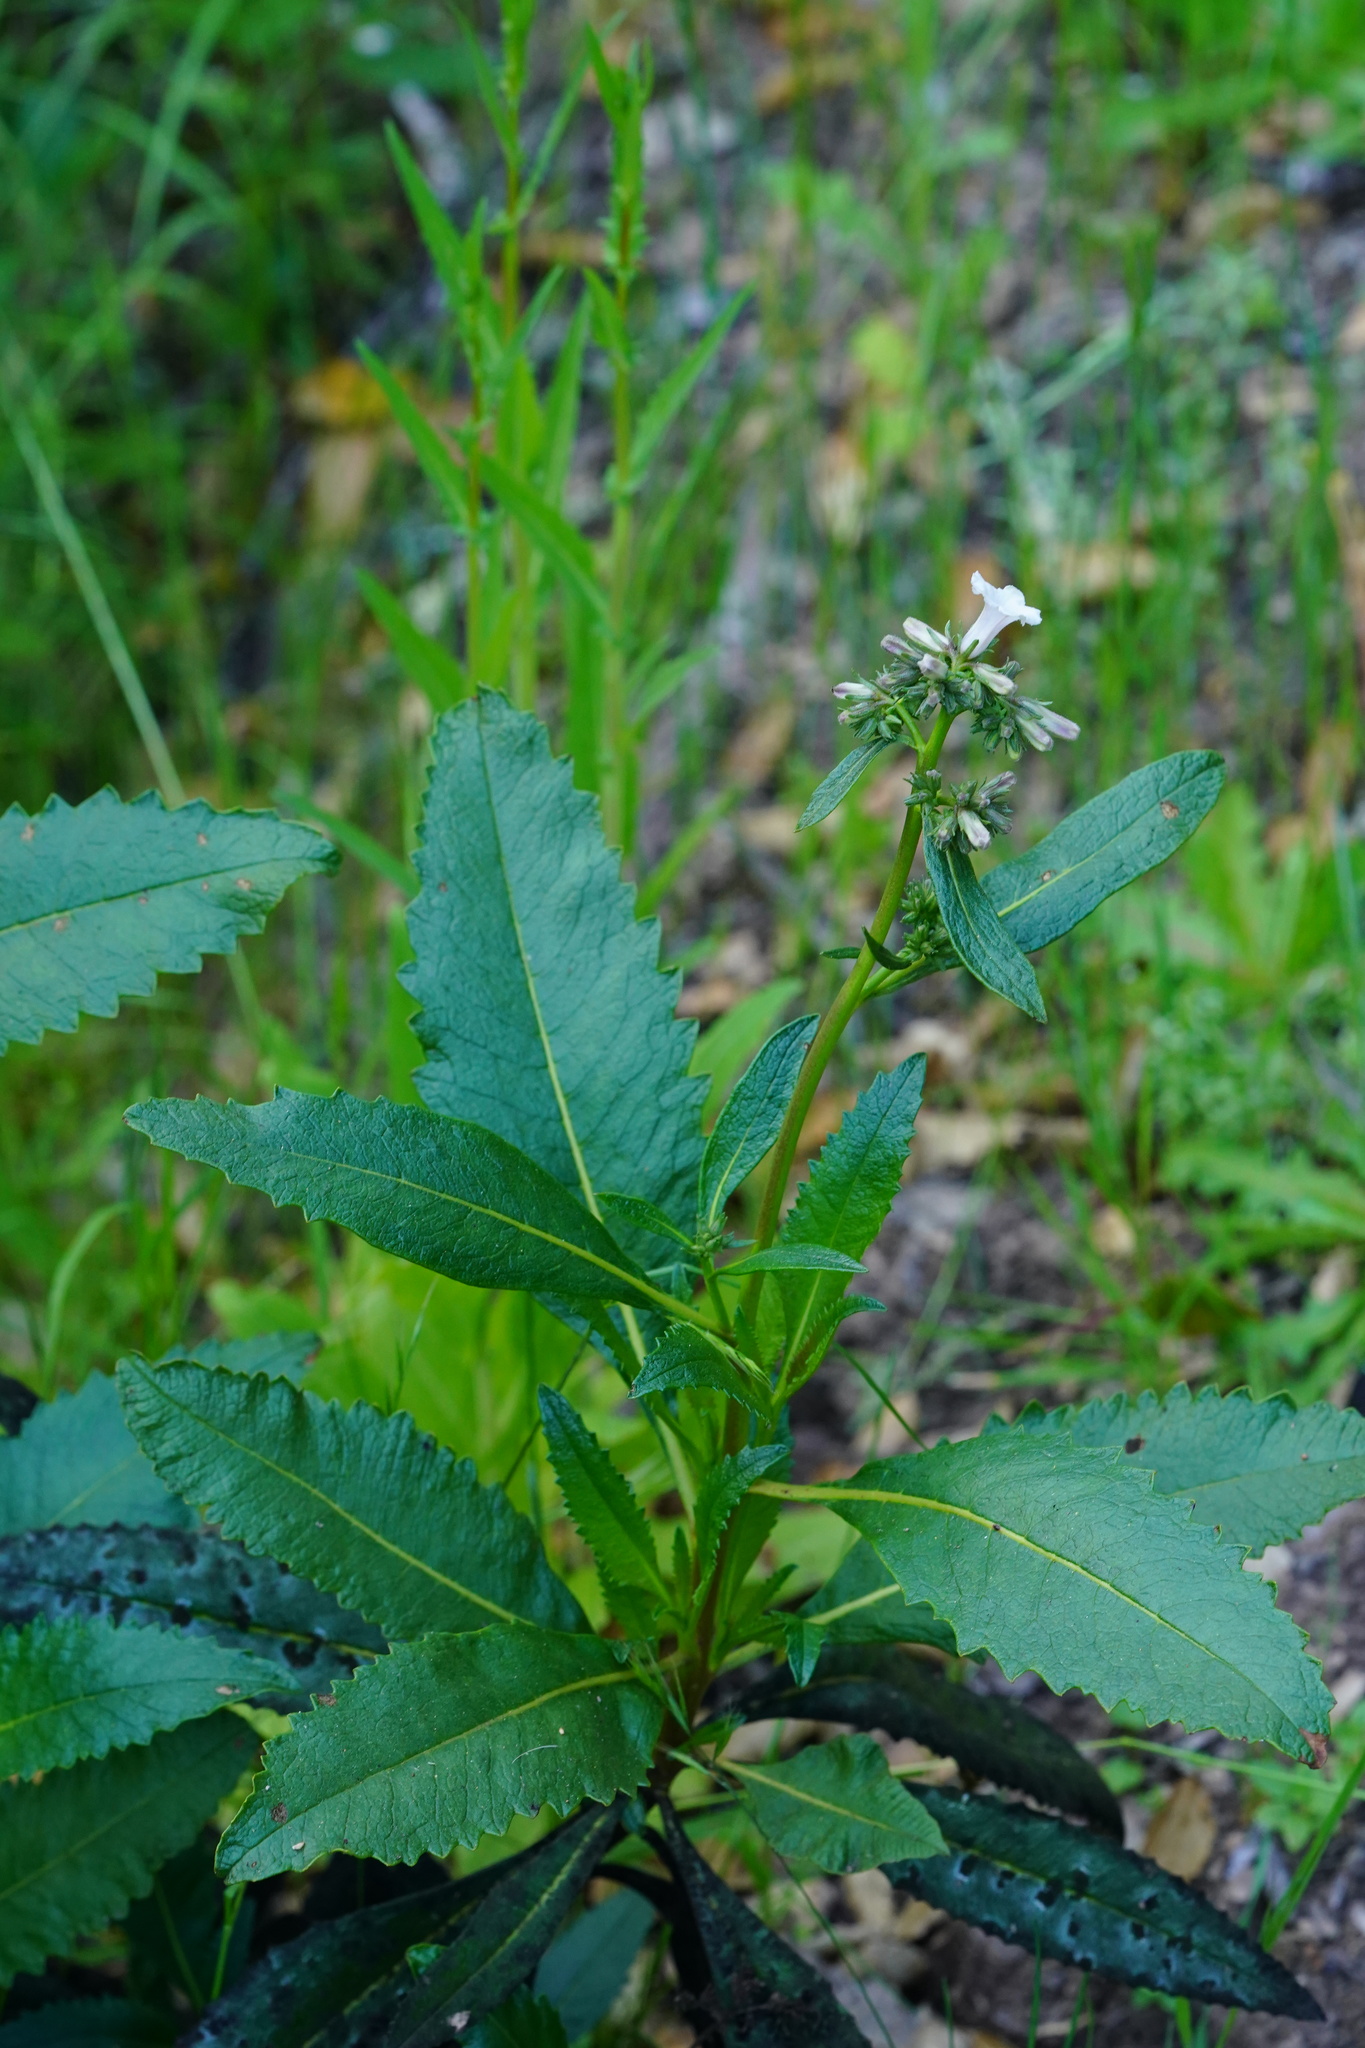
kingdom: Plantae
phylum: Tracheophyta
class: Magnoliopsida
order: Boraginales
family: Namaceae
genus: Eriodictyon
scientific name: Eriodictyon californicum
